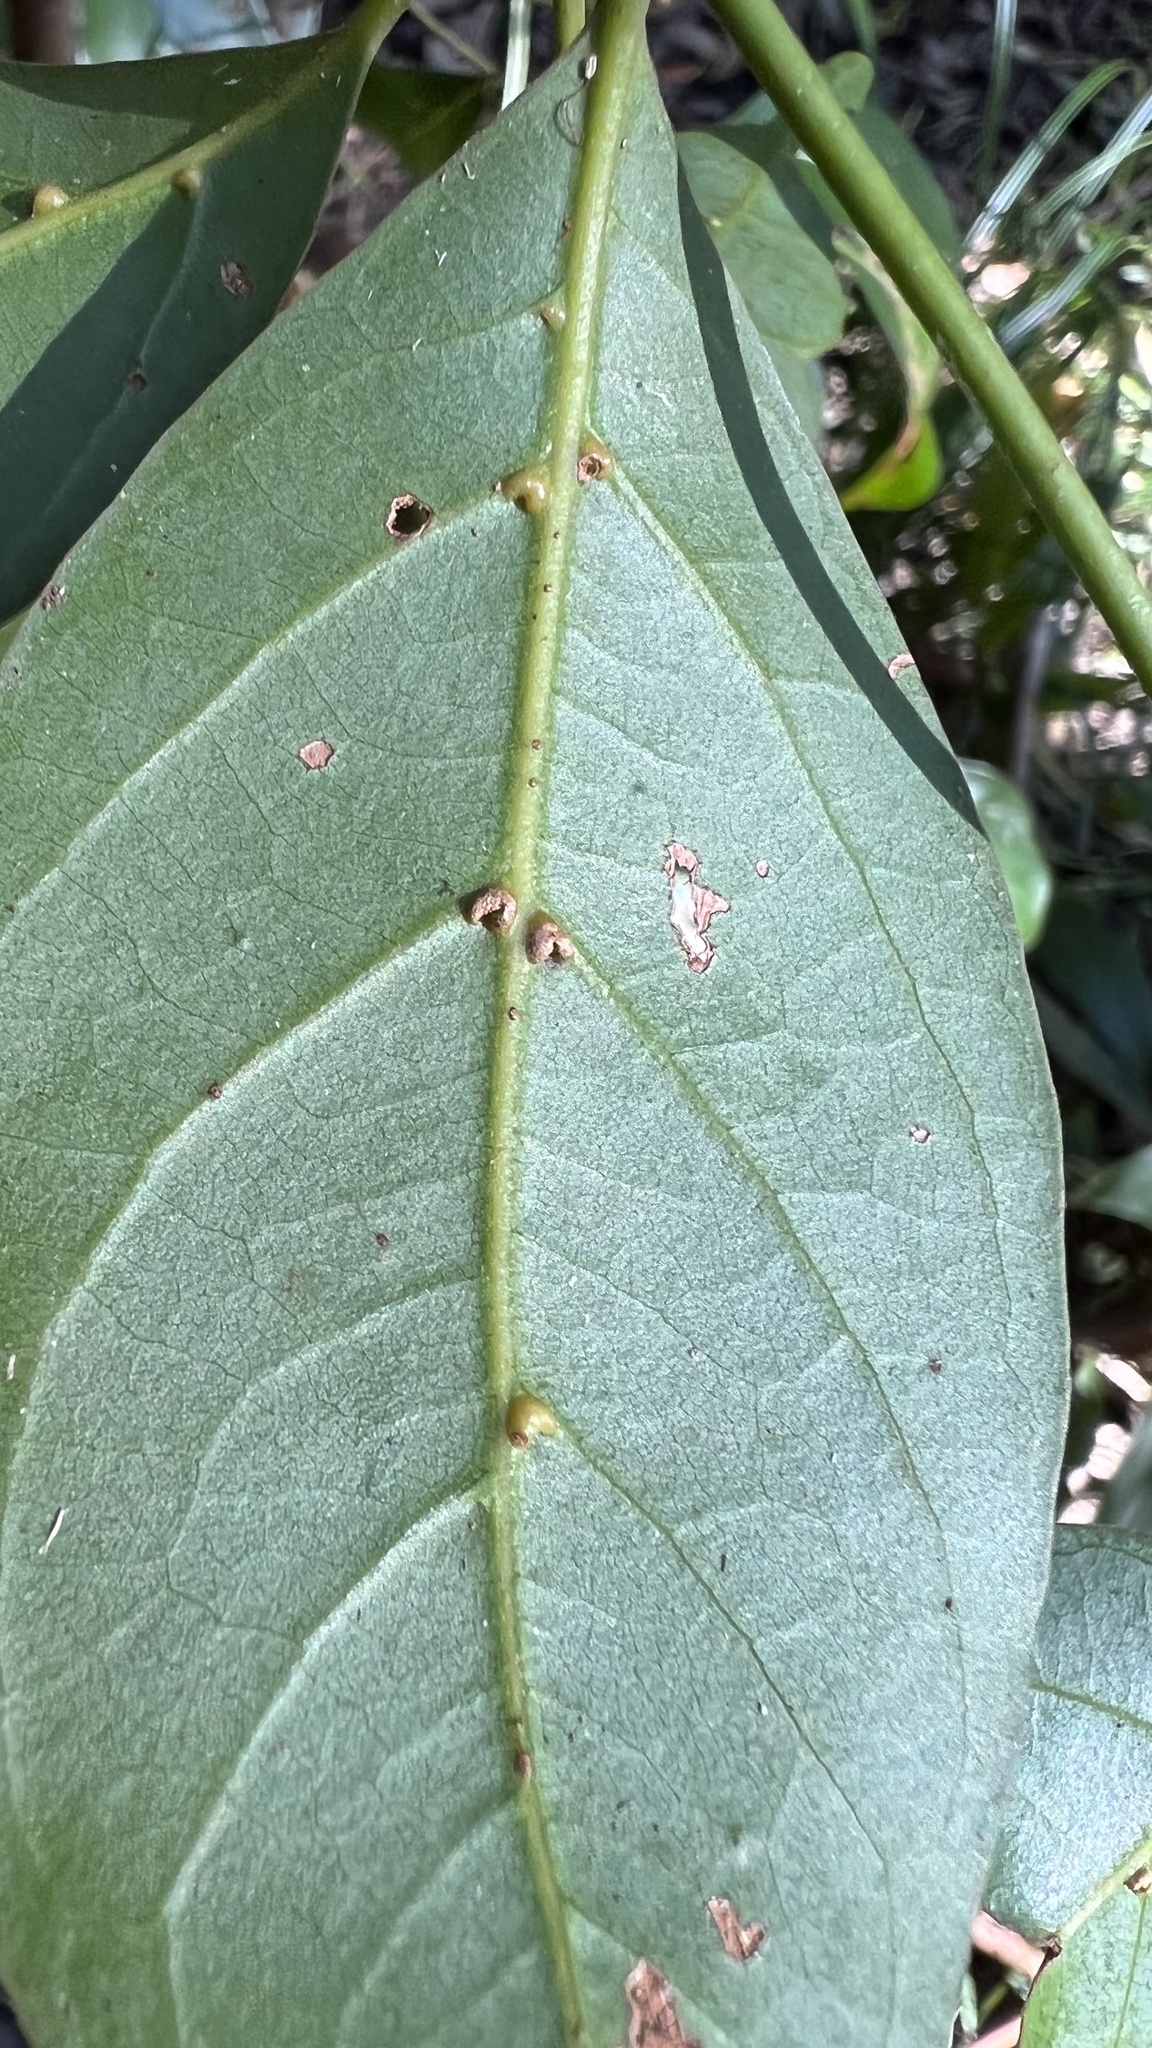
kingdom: Plantae
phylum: Tracheophyta
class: Magnoliopsida
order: Laurales
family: Lauraceae
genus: Endiandra
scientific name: Endiandra discolor
